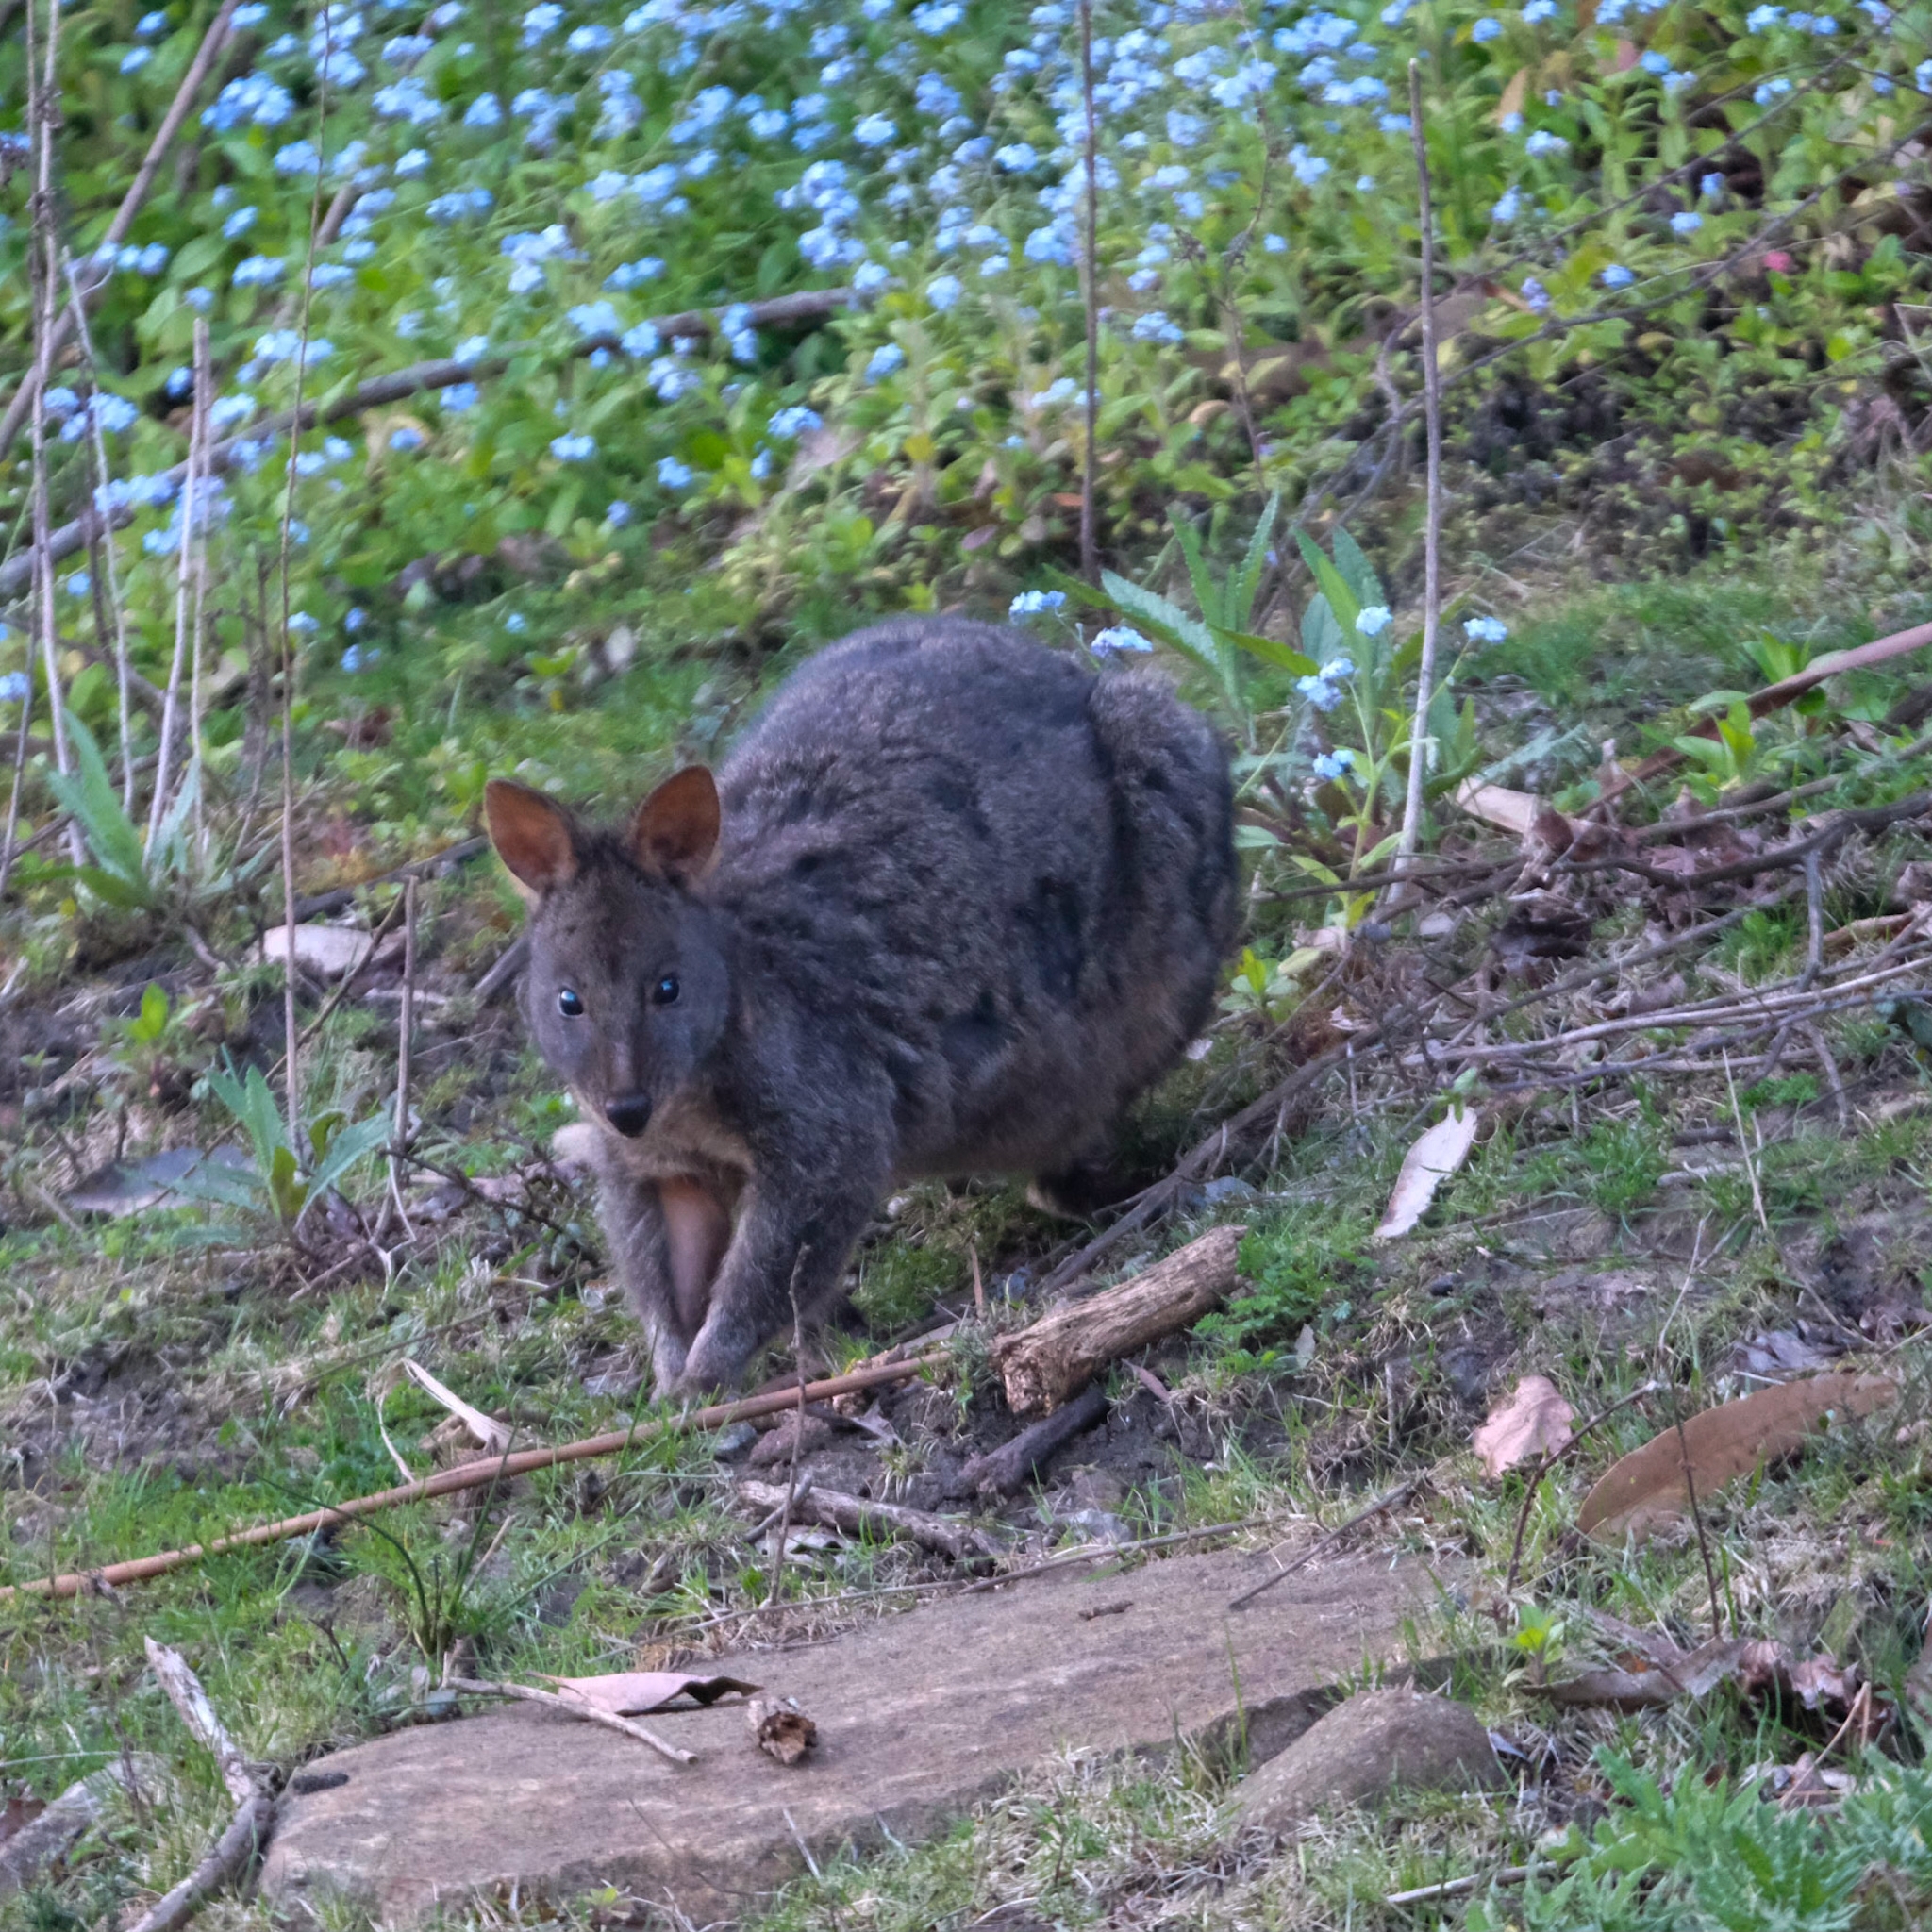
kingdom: Animalia
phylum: Chordata
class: Mammalia
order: Diprotodontia
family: Macropodidae
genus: Thylogale
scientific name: Thylogale billardierii
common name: Tasmanian pademelon
